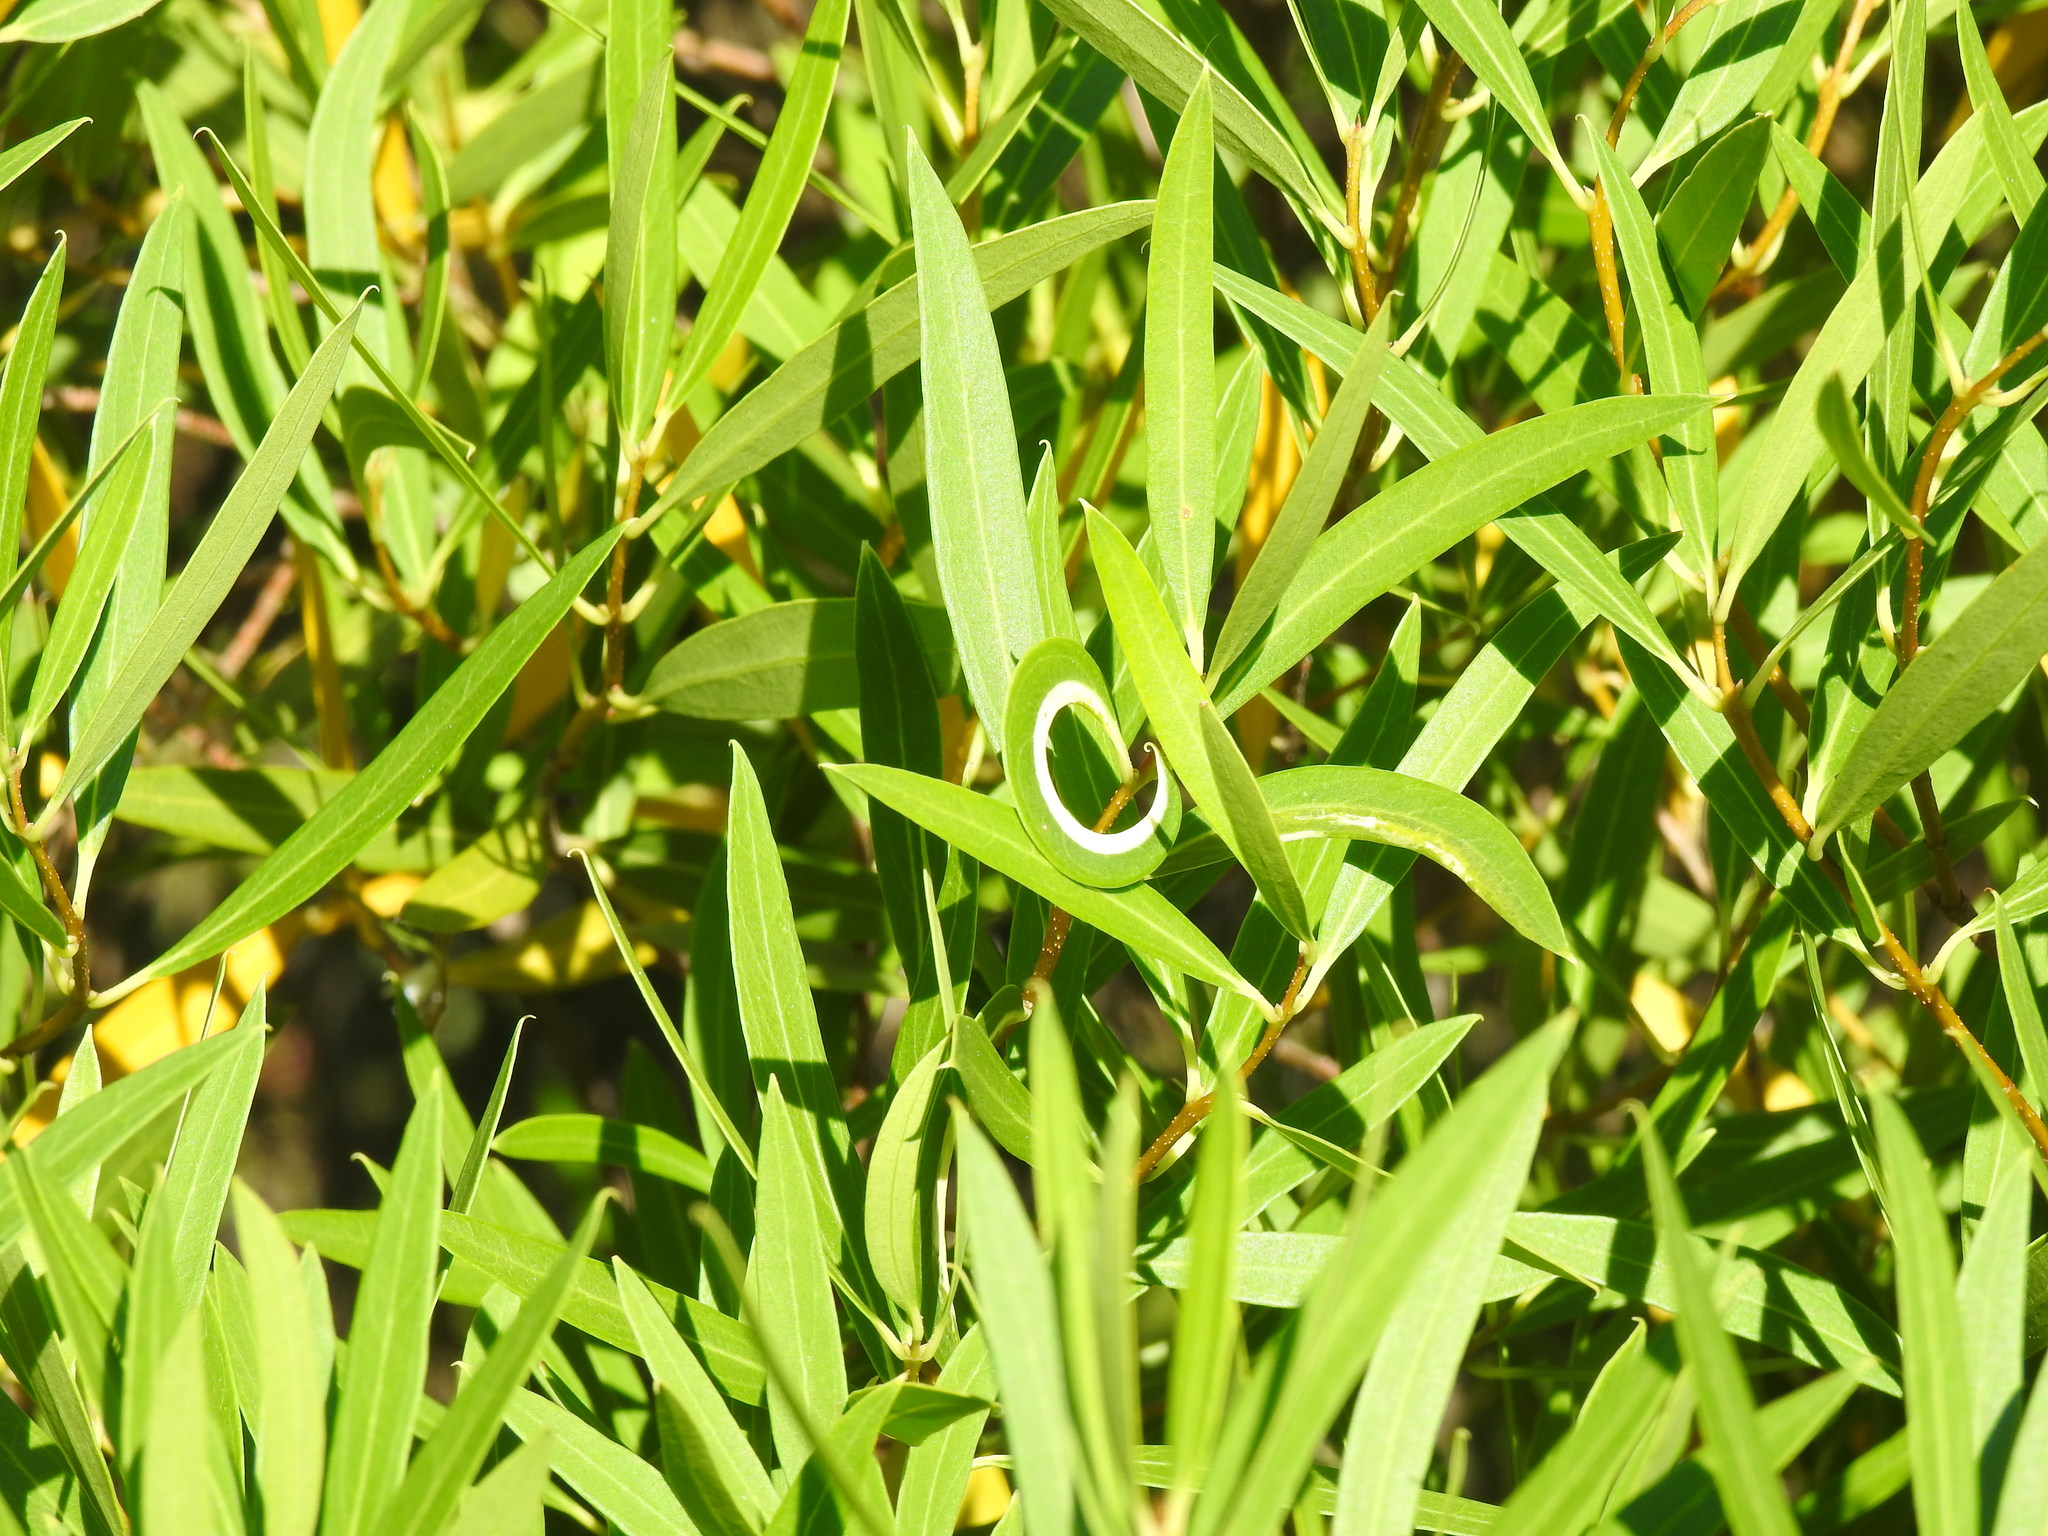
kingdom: Plantae
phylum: Tracheophyta
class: Magnoliopsida
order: Lamiales
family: Oleaceae
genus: Phillyrea
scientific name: Phillyrea angustifolia
